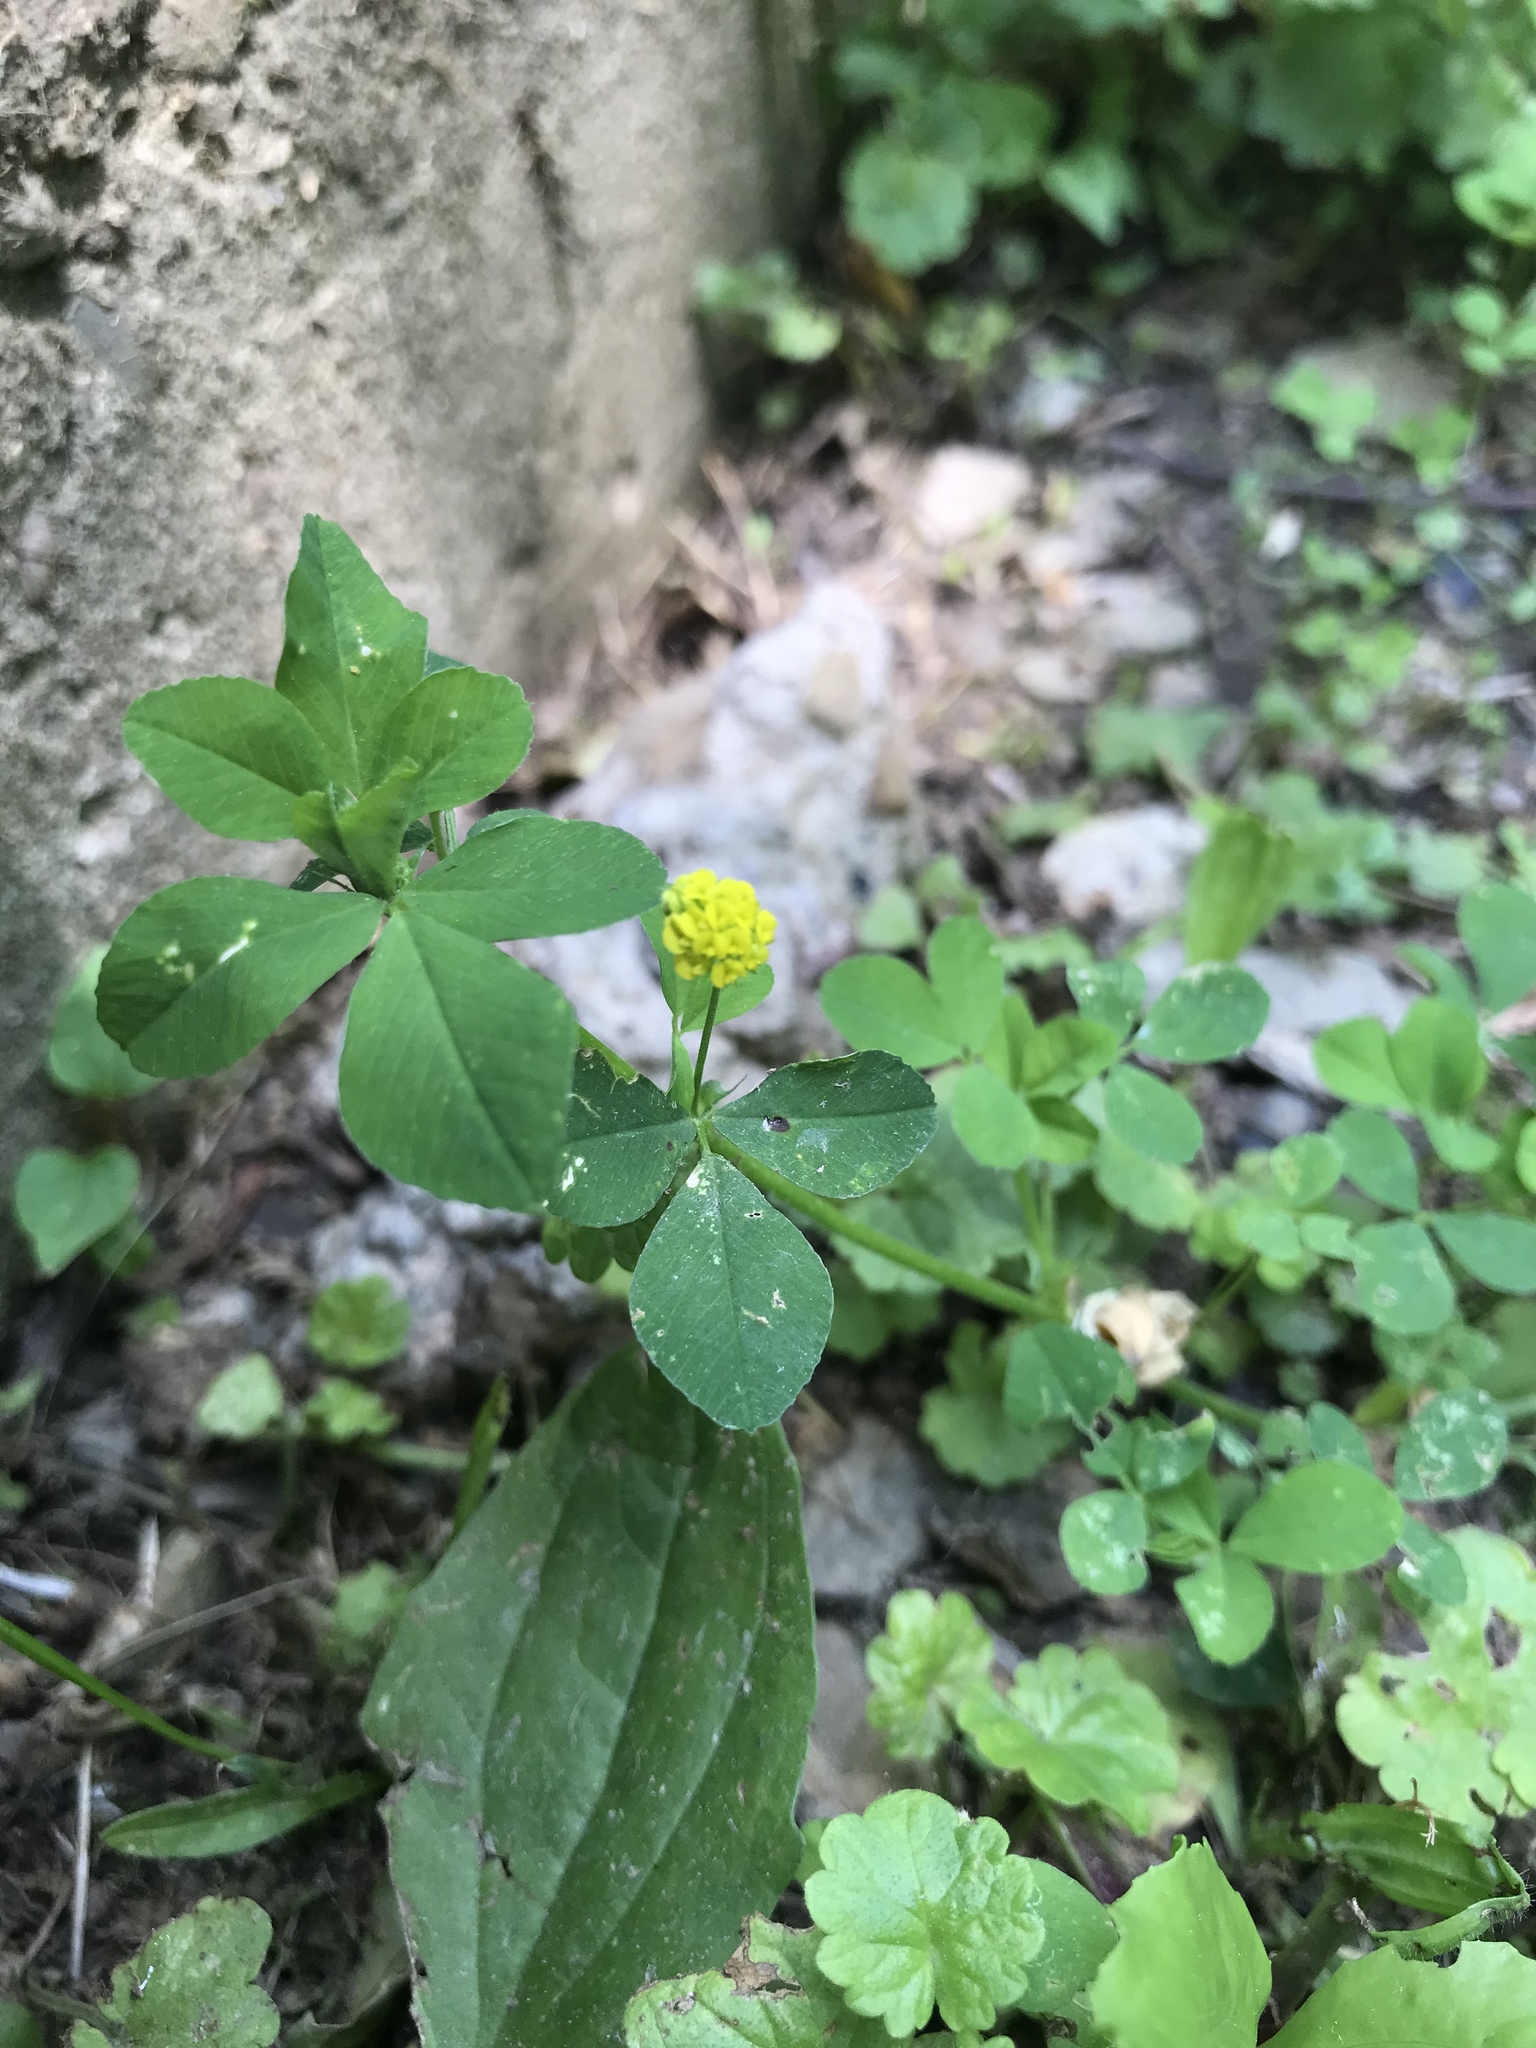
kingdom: Plantae
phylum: Tracheophyta
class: Magnoliopsida
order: Fabales
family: Fabaceae
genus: Medicago
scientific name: Medicago lupulina
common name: Black medick
